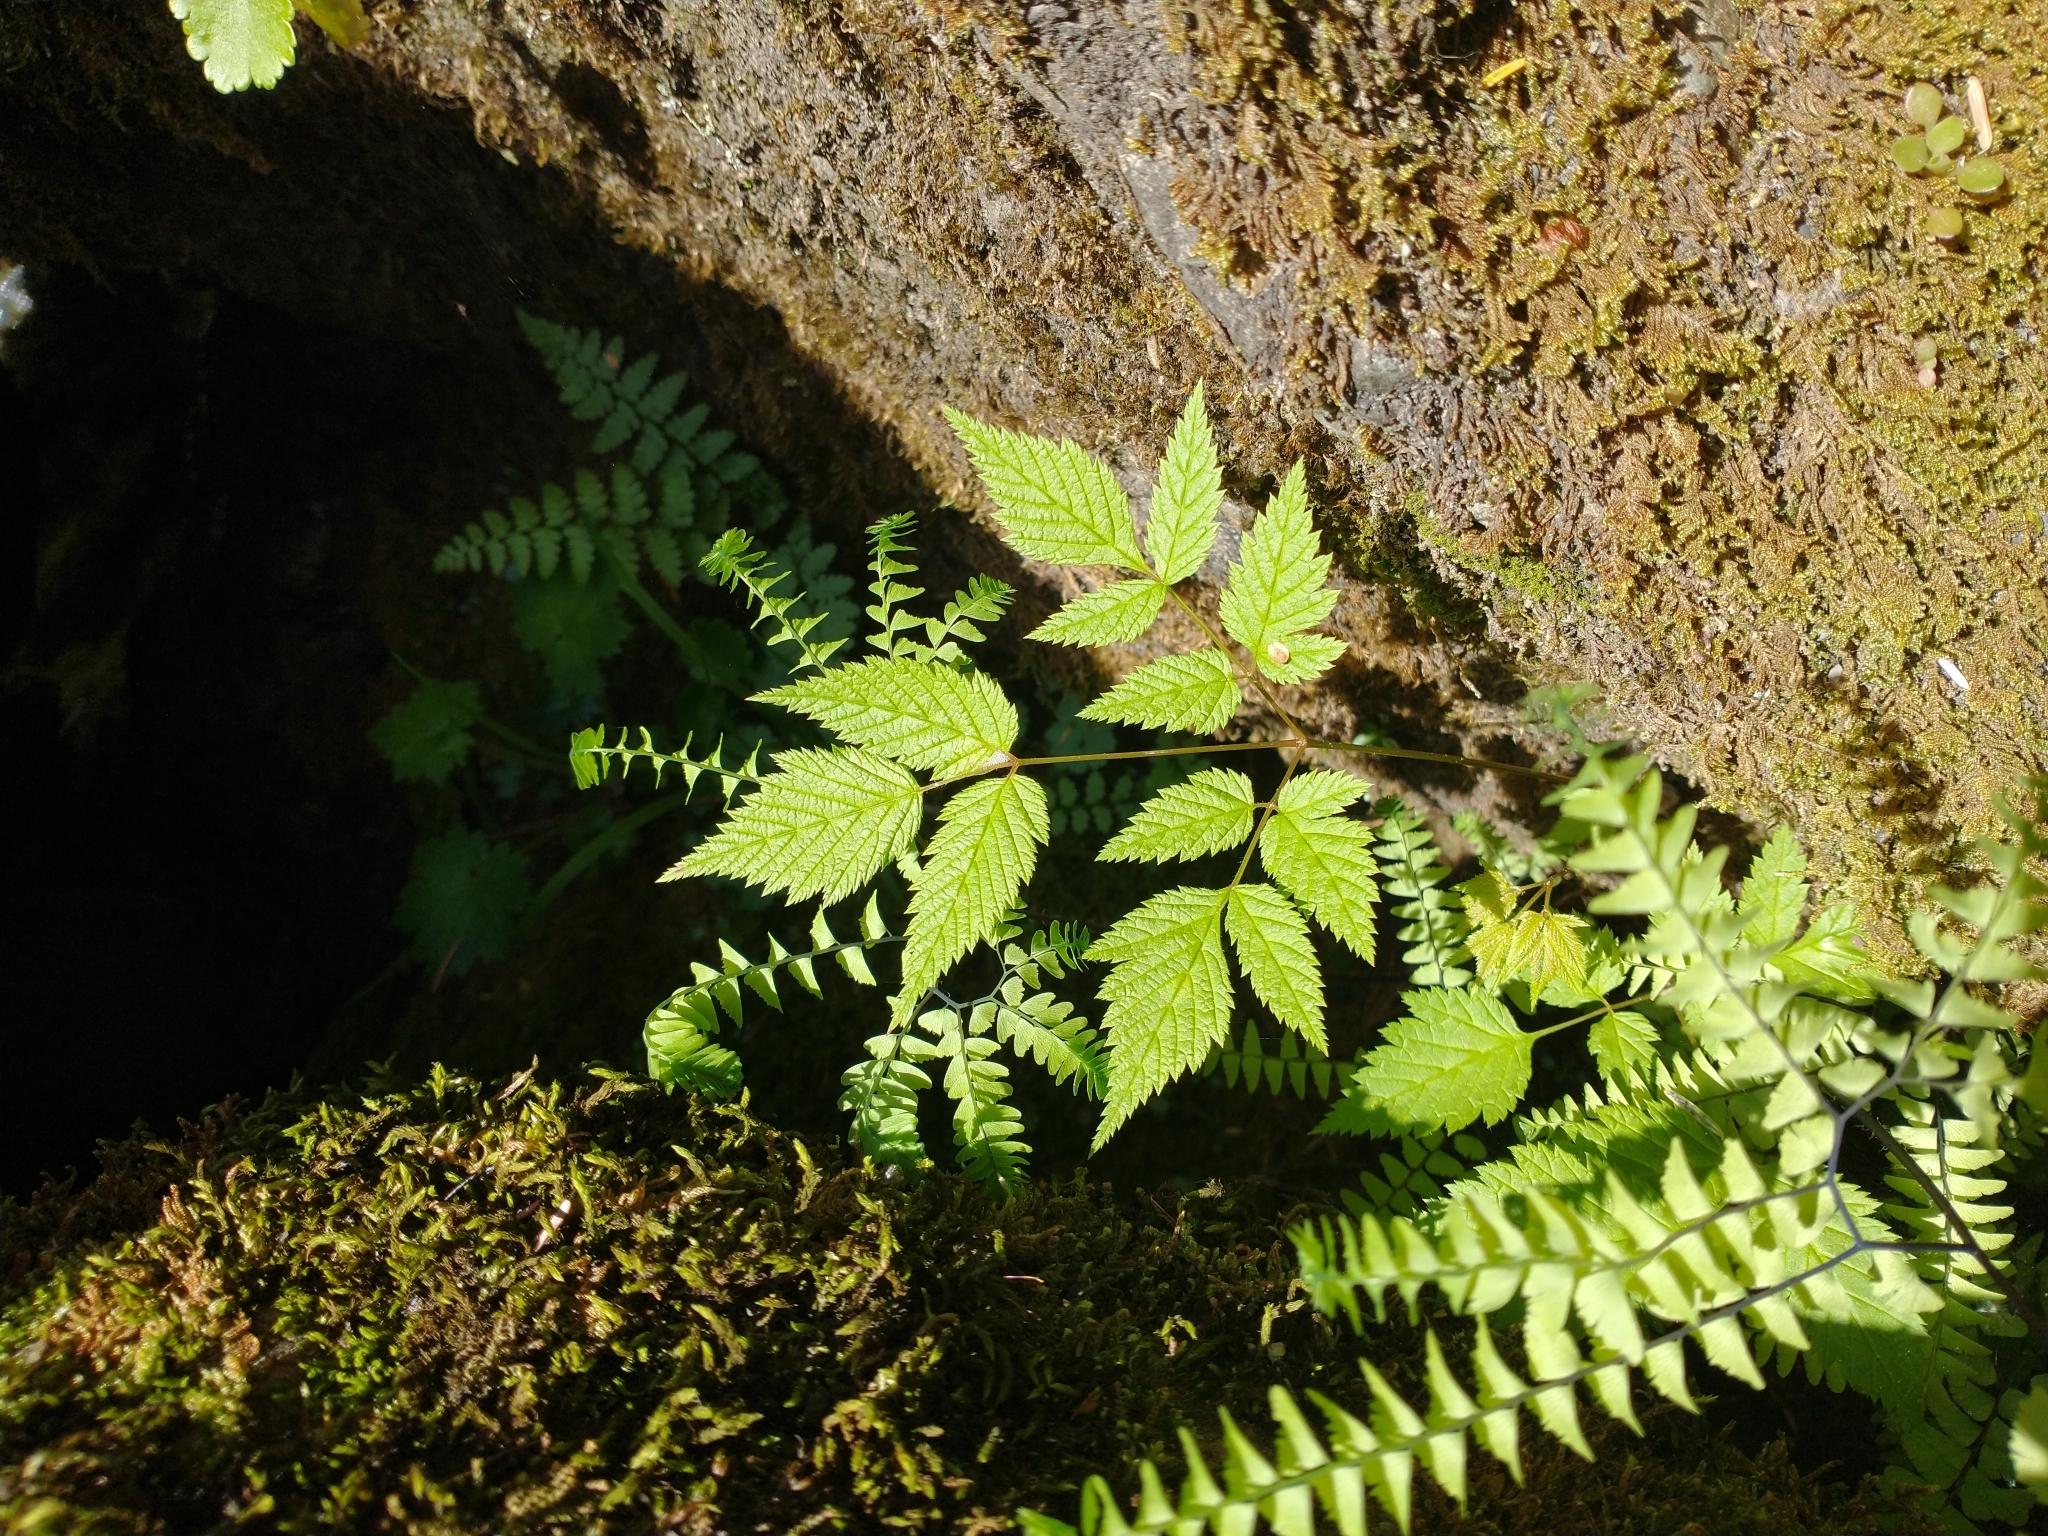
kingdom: Plantae
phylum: Tracheophyta
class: Magnoliopsida
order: Rosales
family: Rosaceae
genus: Aruncus
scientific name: Aruncus dioicus
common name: Buck's-beard
